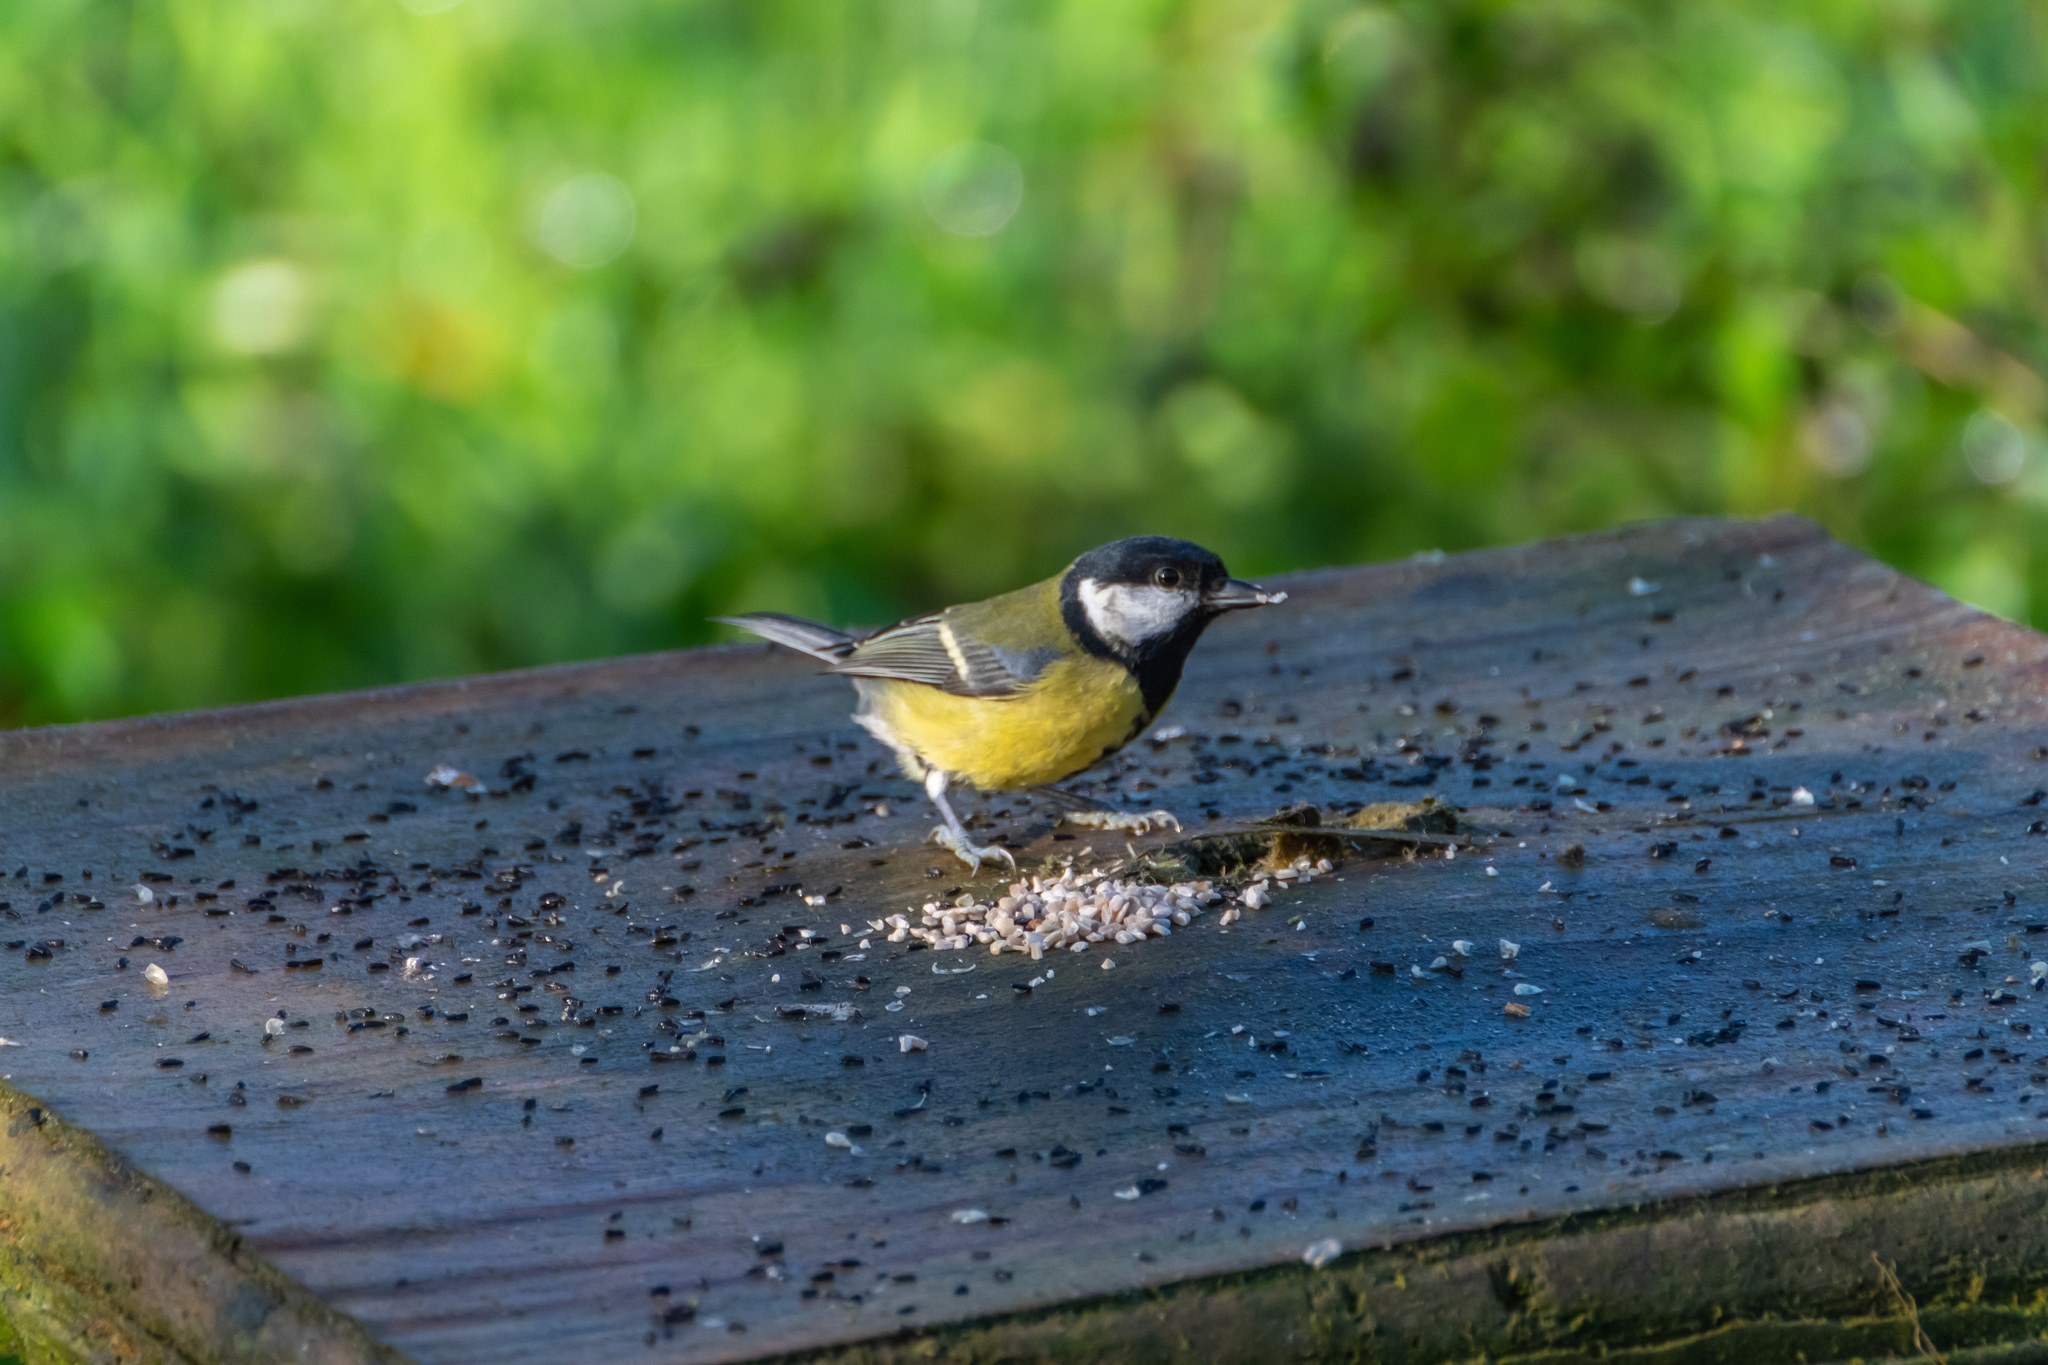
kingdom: Animalia
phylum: Chordata
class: Aves
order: Passeriformes
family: Paridae
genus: Parus
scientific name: Parus major
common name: Great tit
